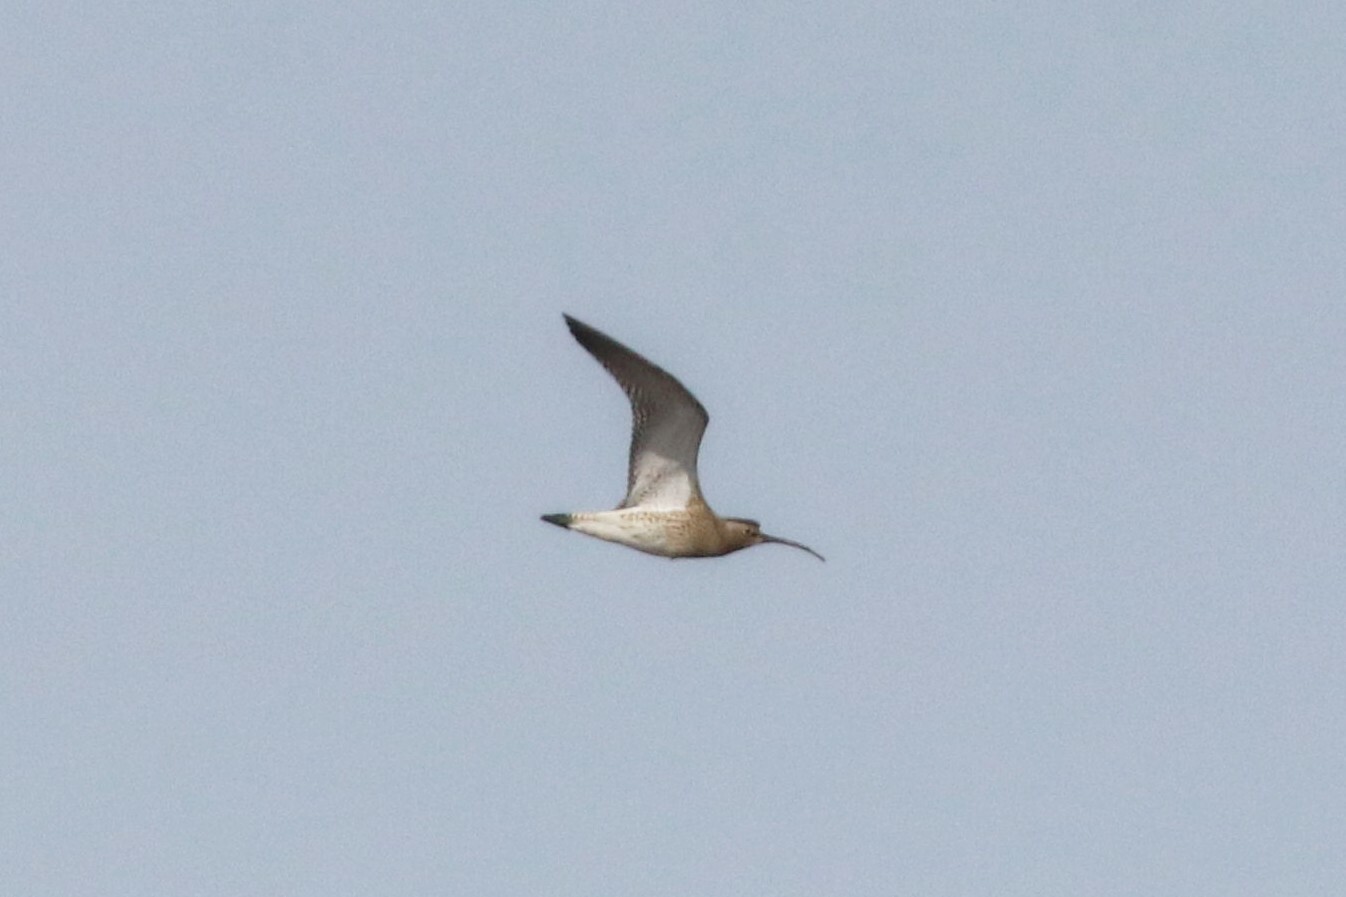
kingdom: Animalia
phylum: Chordata
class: Aves
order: Charadriiformes
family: Scolopacidae
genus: Numenius
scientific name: Numenius arquata
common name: Eurasian curlew
